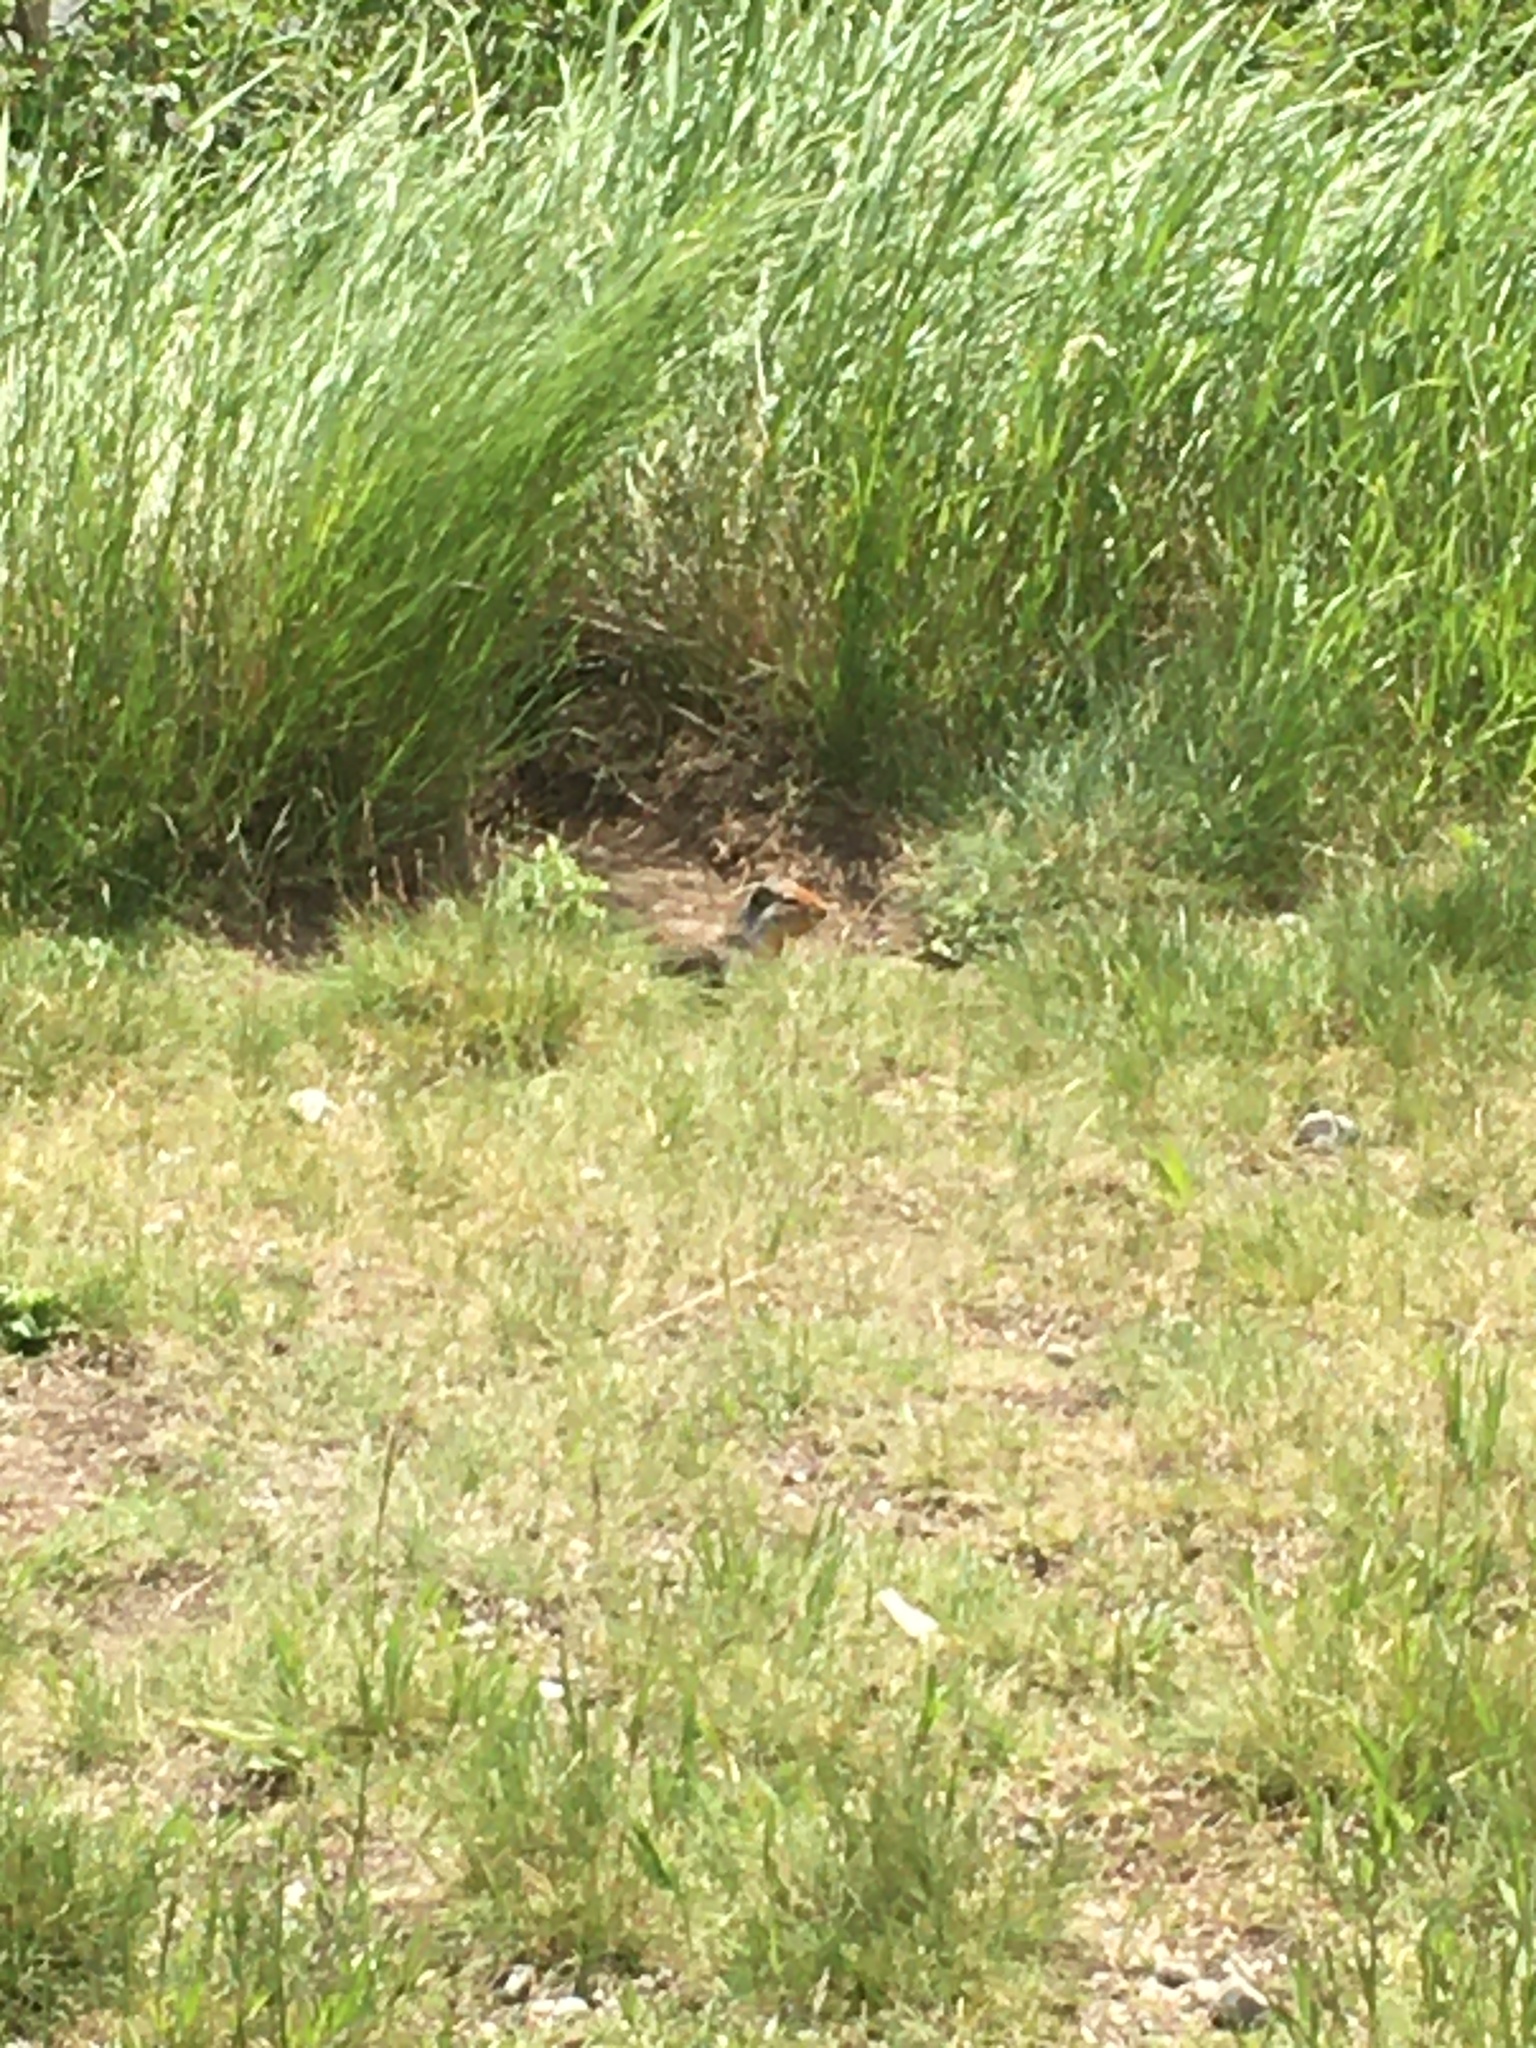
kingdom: Animalia
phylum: Chordata
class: Mammalia
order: Rodentia
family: Sciuridae
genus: Urocitellus
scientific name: Urocitellus columbianus
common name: Columbian ground squirrel
